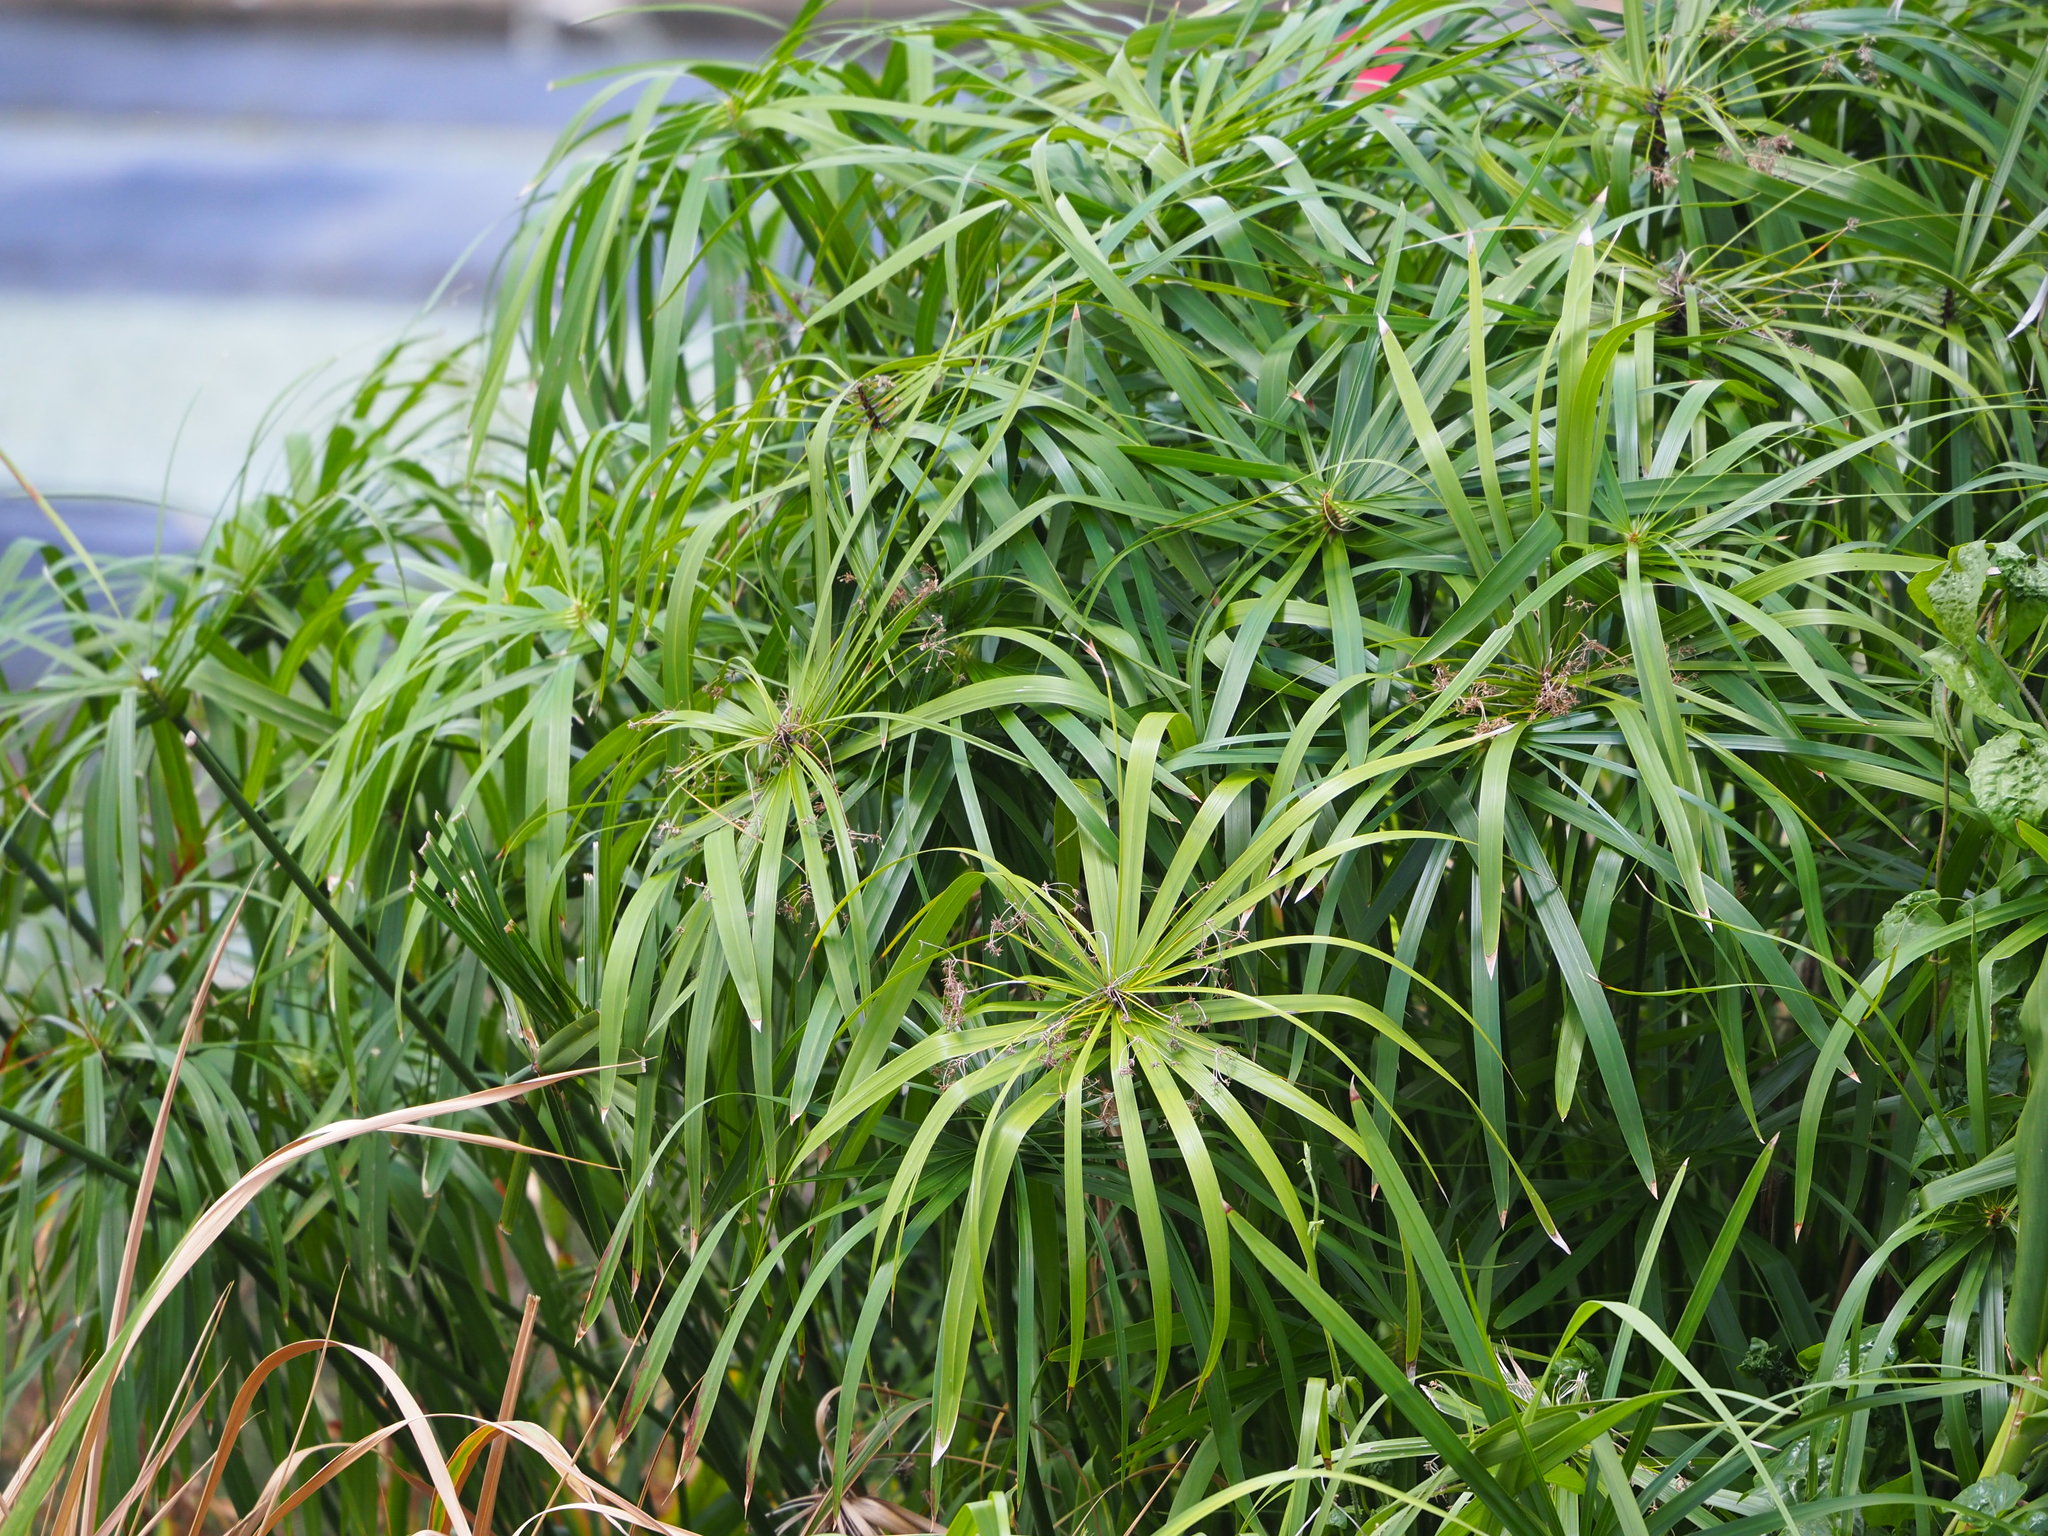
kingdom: Plantae
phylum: Tracheophyta
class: Liliopsida
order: Poales
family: Cyperaceae
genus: Cyperus
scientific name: Cyperus alternifolius
